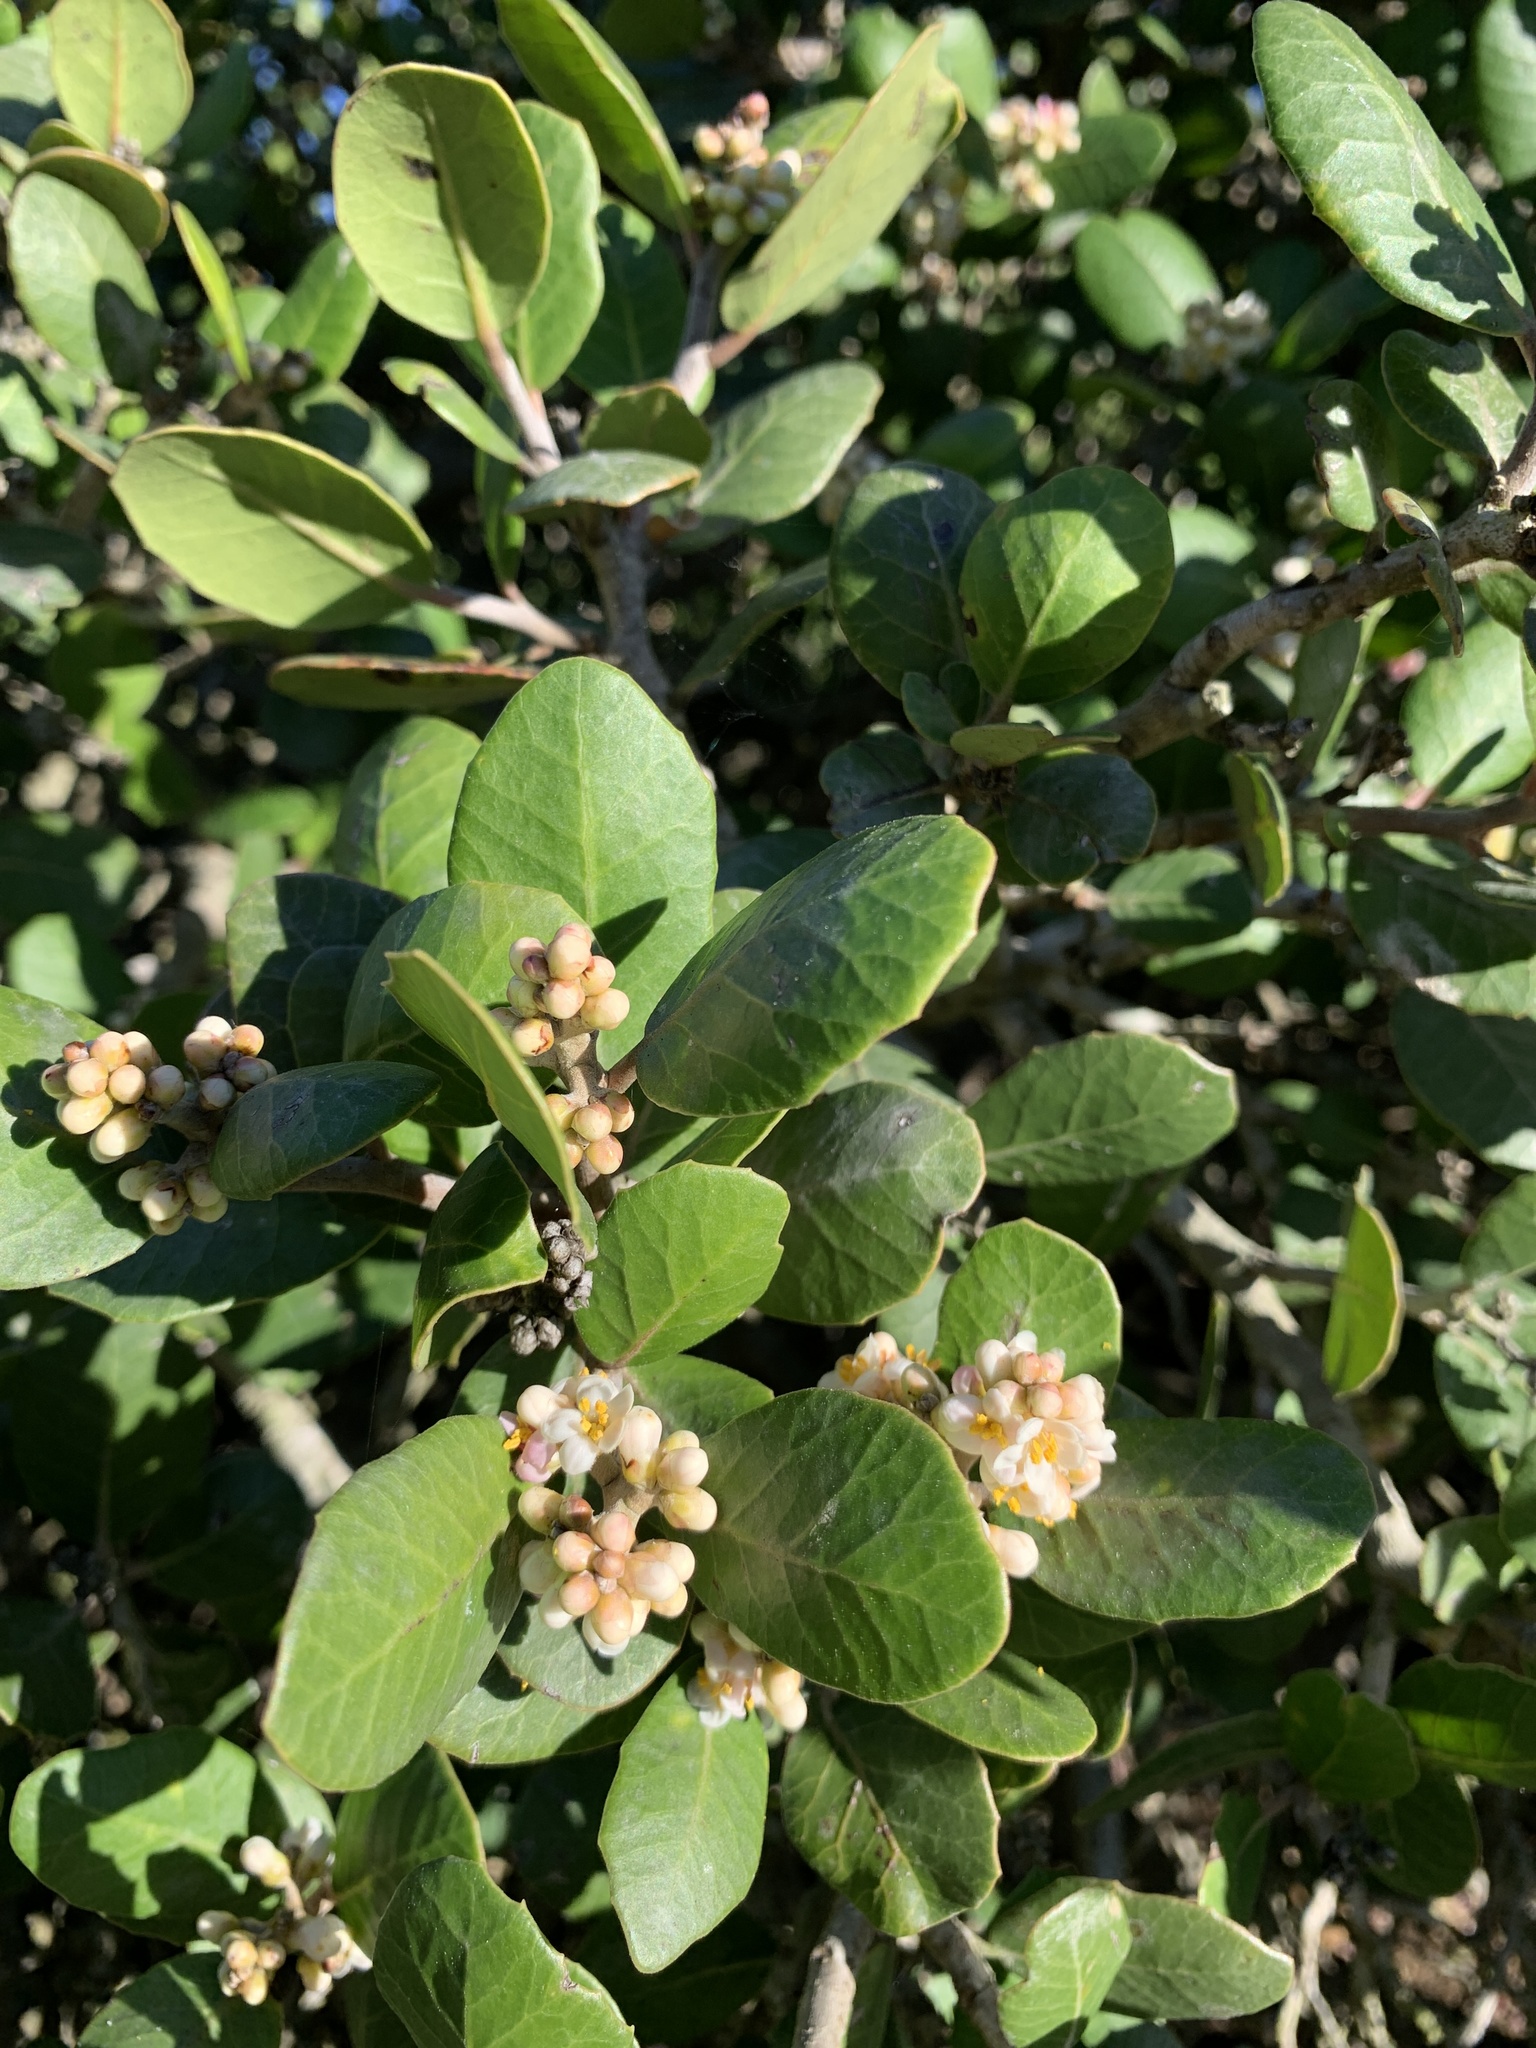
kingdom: Plantae
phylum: Tracheophyta
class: Magnoliopsida
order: Sapindales
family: Anacardiaceae
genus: Rhus
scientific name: Rhus integrifolia
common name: Lemonade sumac
